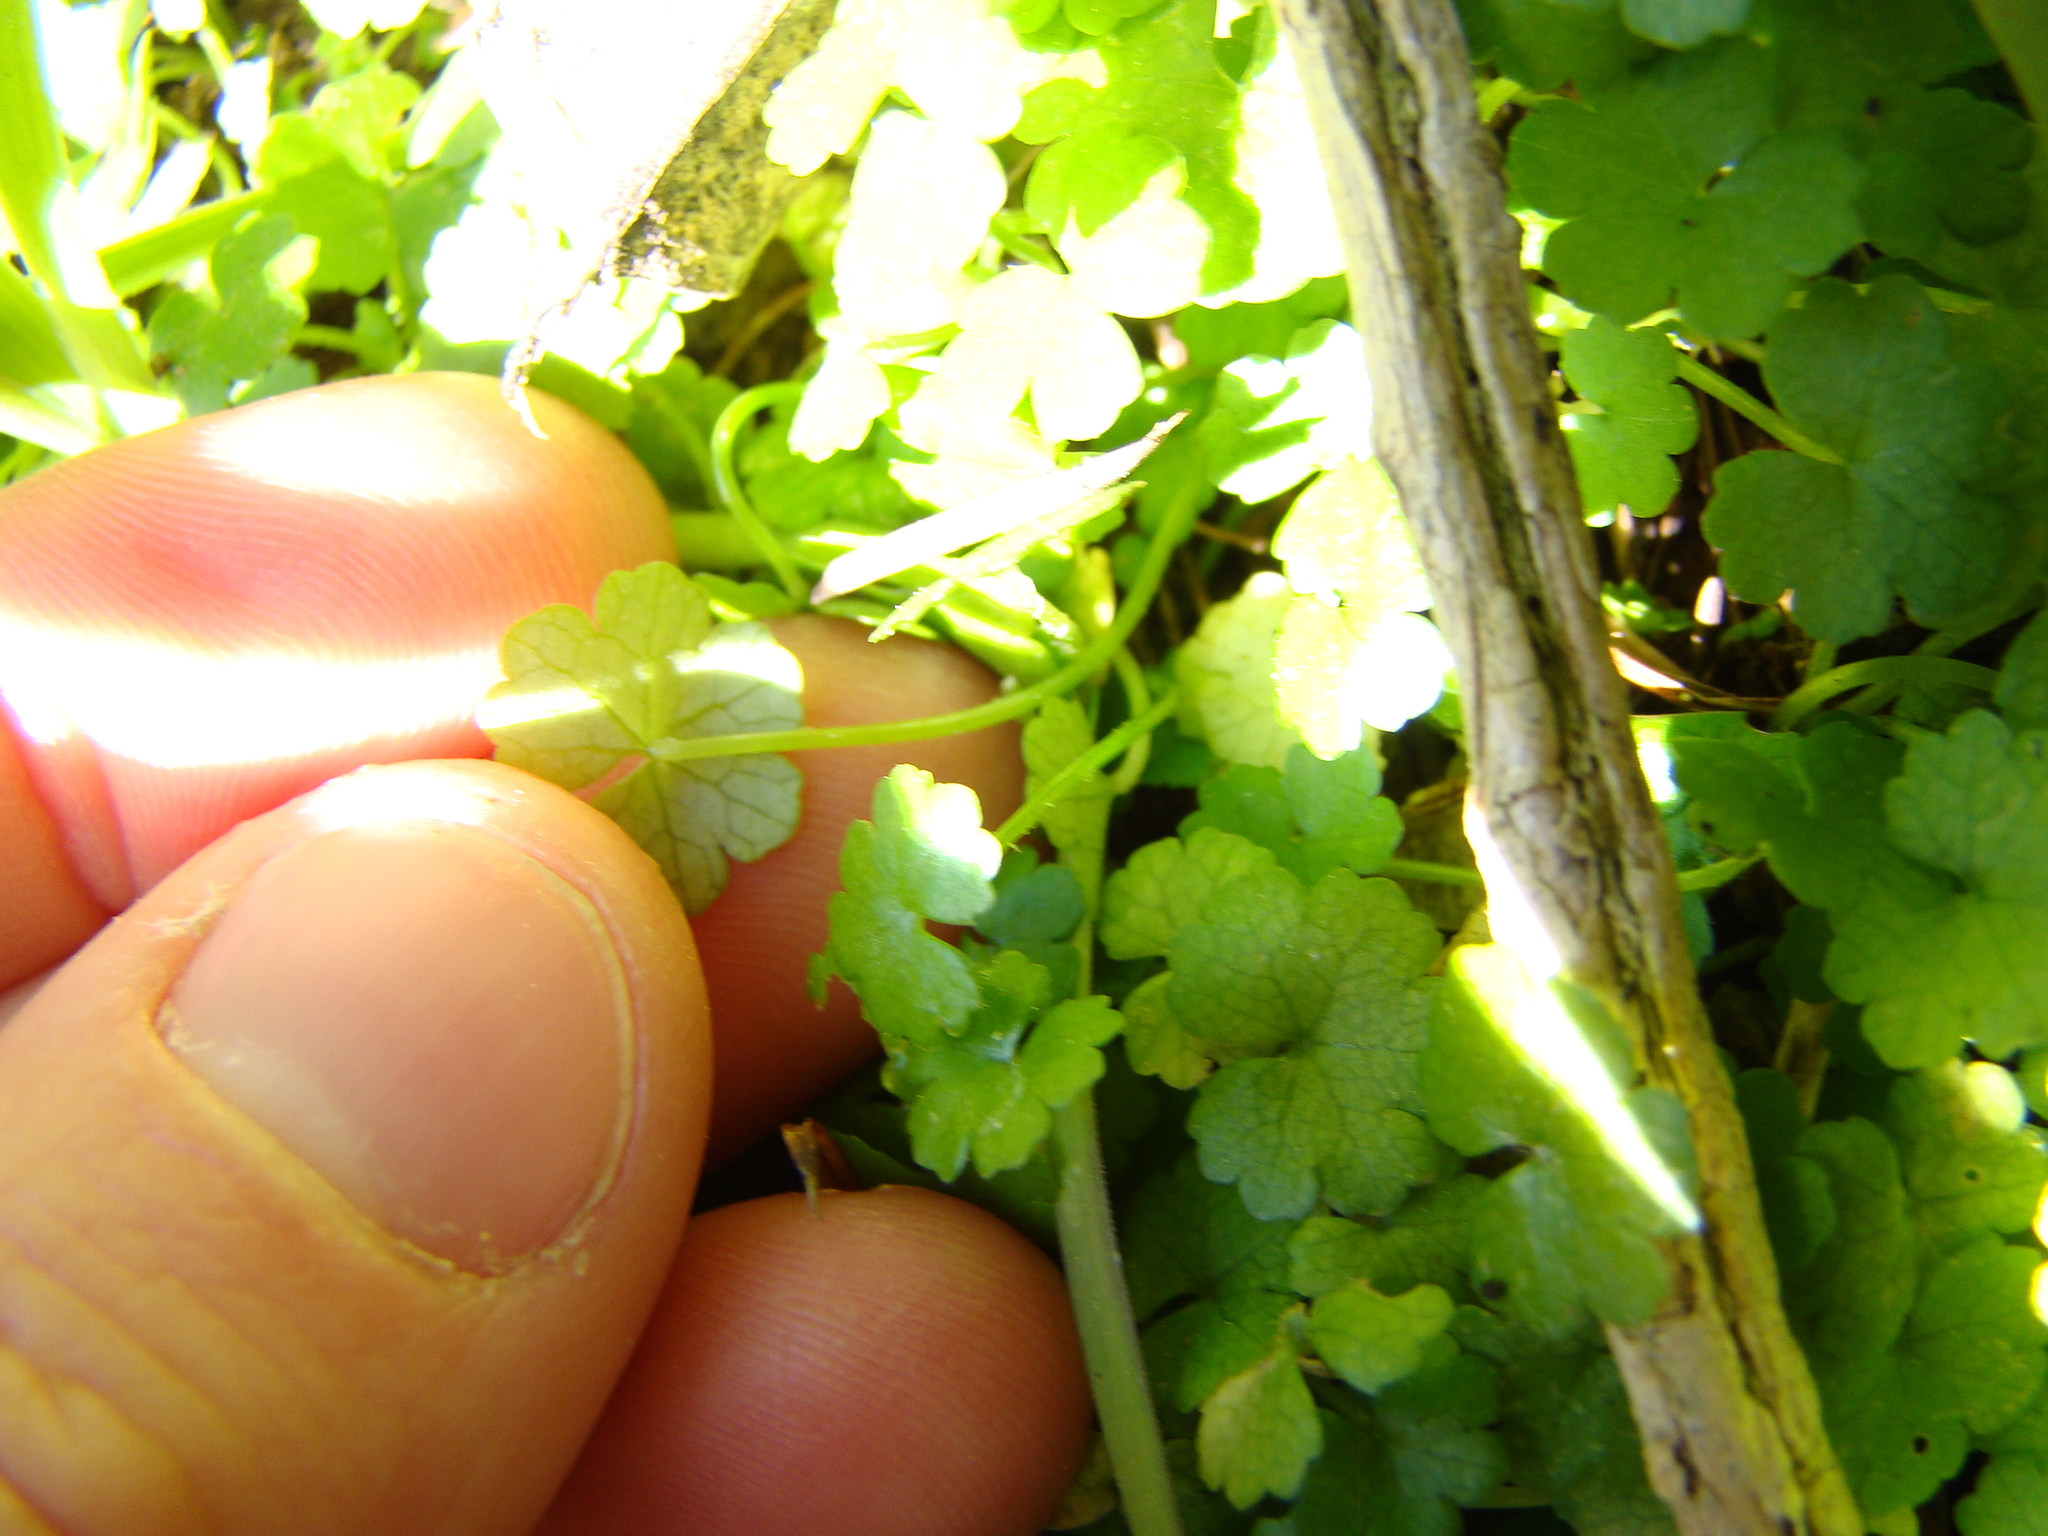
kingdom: Plantae
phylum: Tracheophyta
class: Magnoliopsida
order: Apiales
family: Araliaceae
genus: Hydrocotyle
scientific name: Hydrocotyle heteromeria
